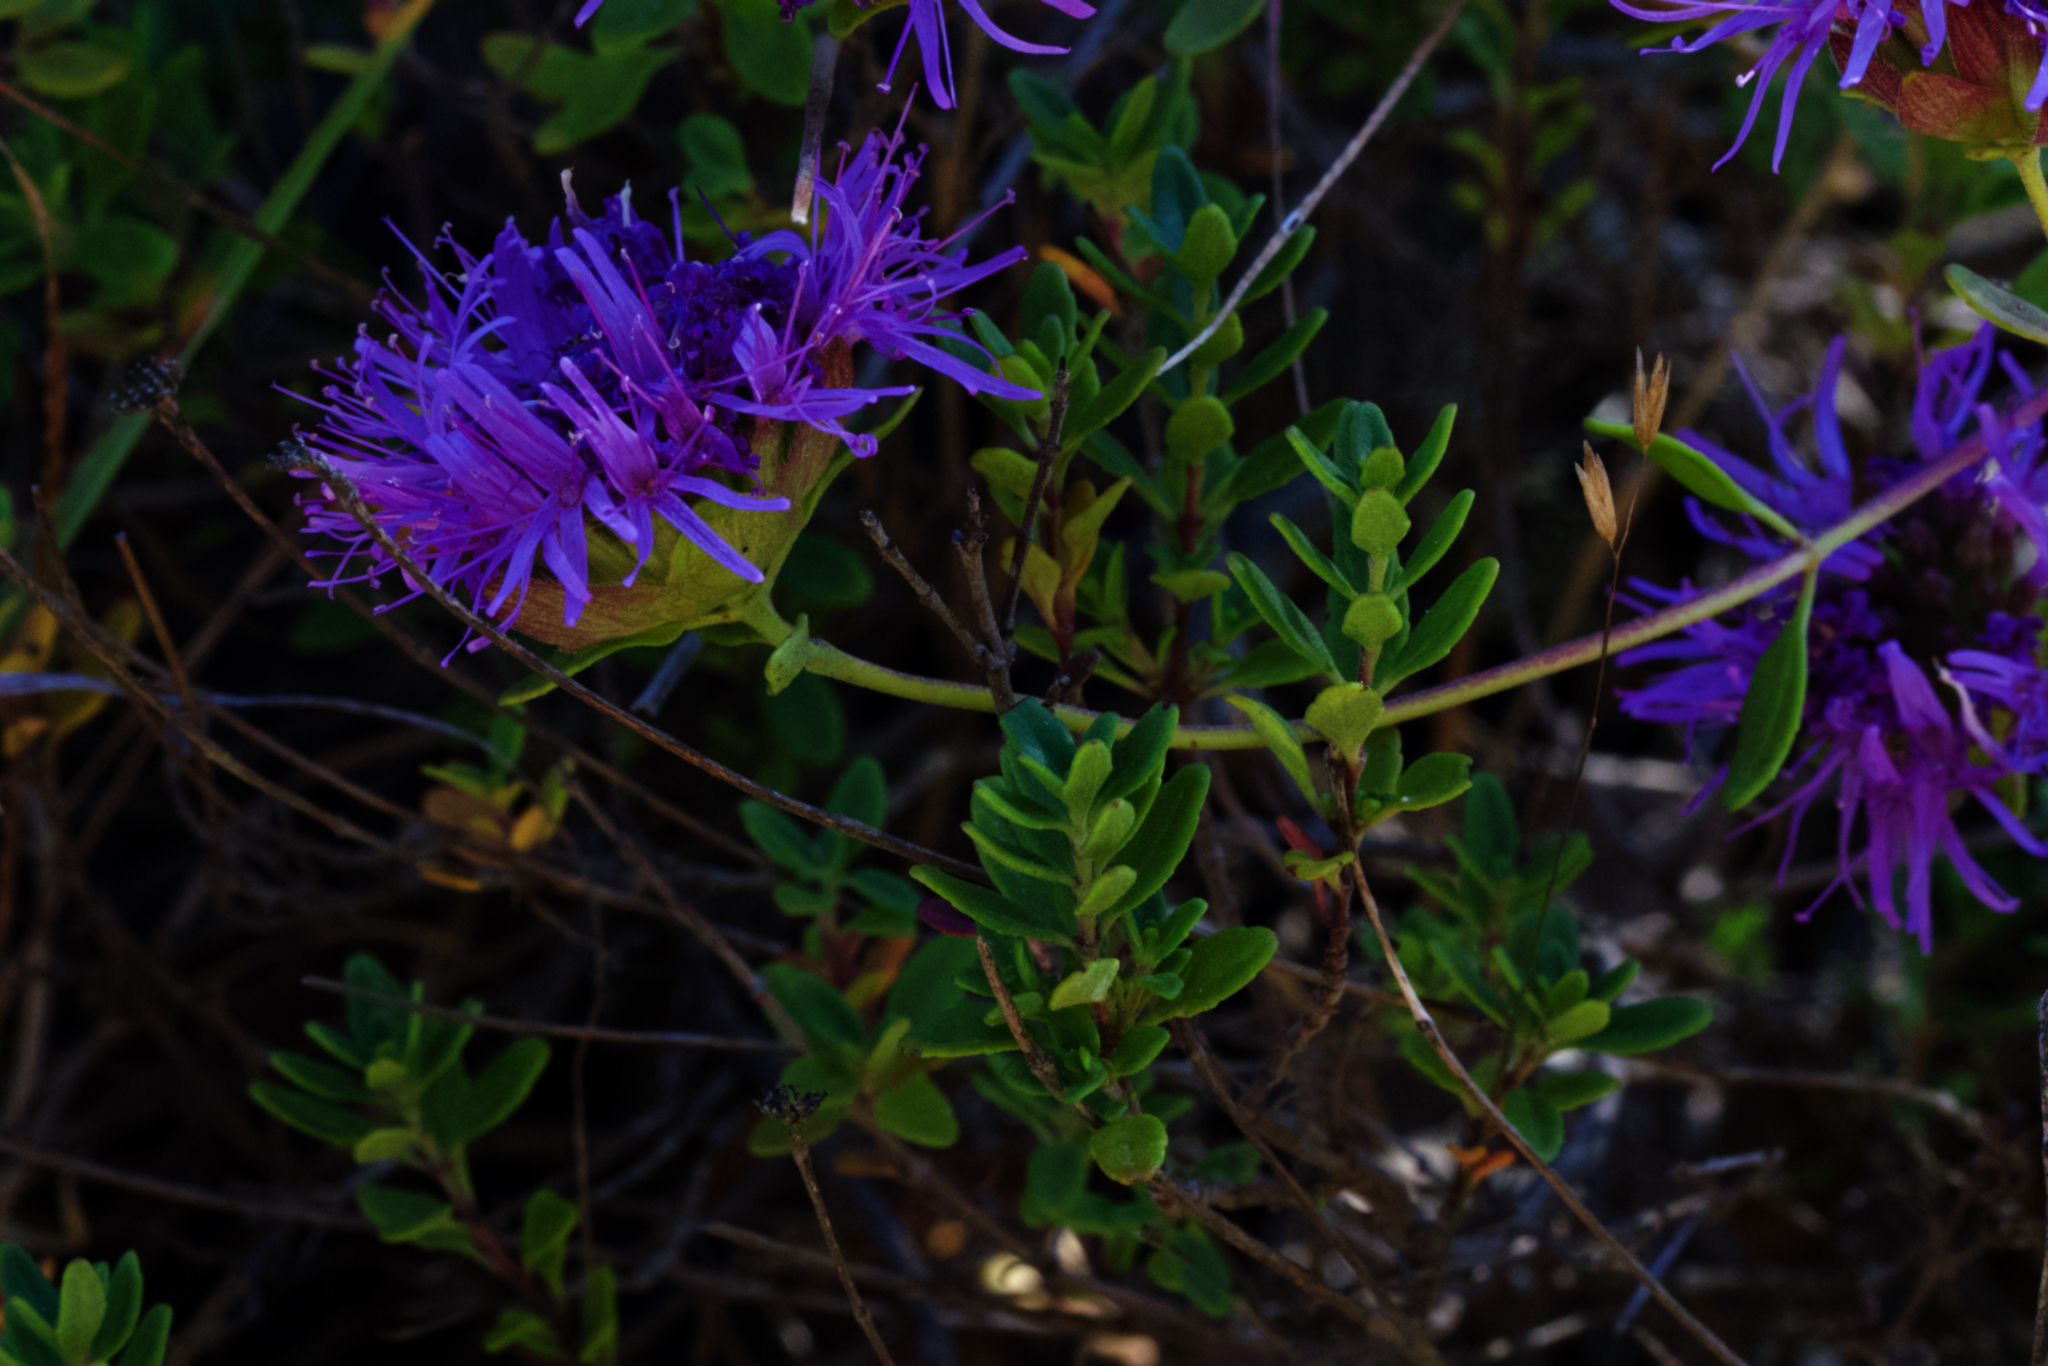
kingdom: Plantae
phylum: Tracheophyta
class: Magnoliopsida
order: Lamiales
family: Lamiaceae
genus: Monardella
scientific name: Monardella purpurea
